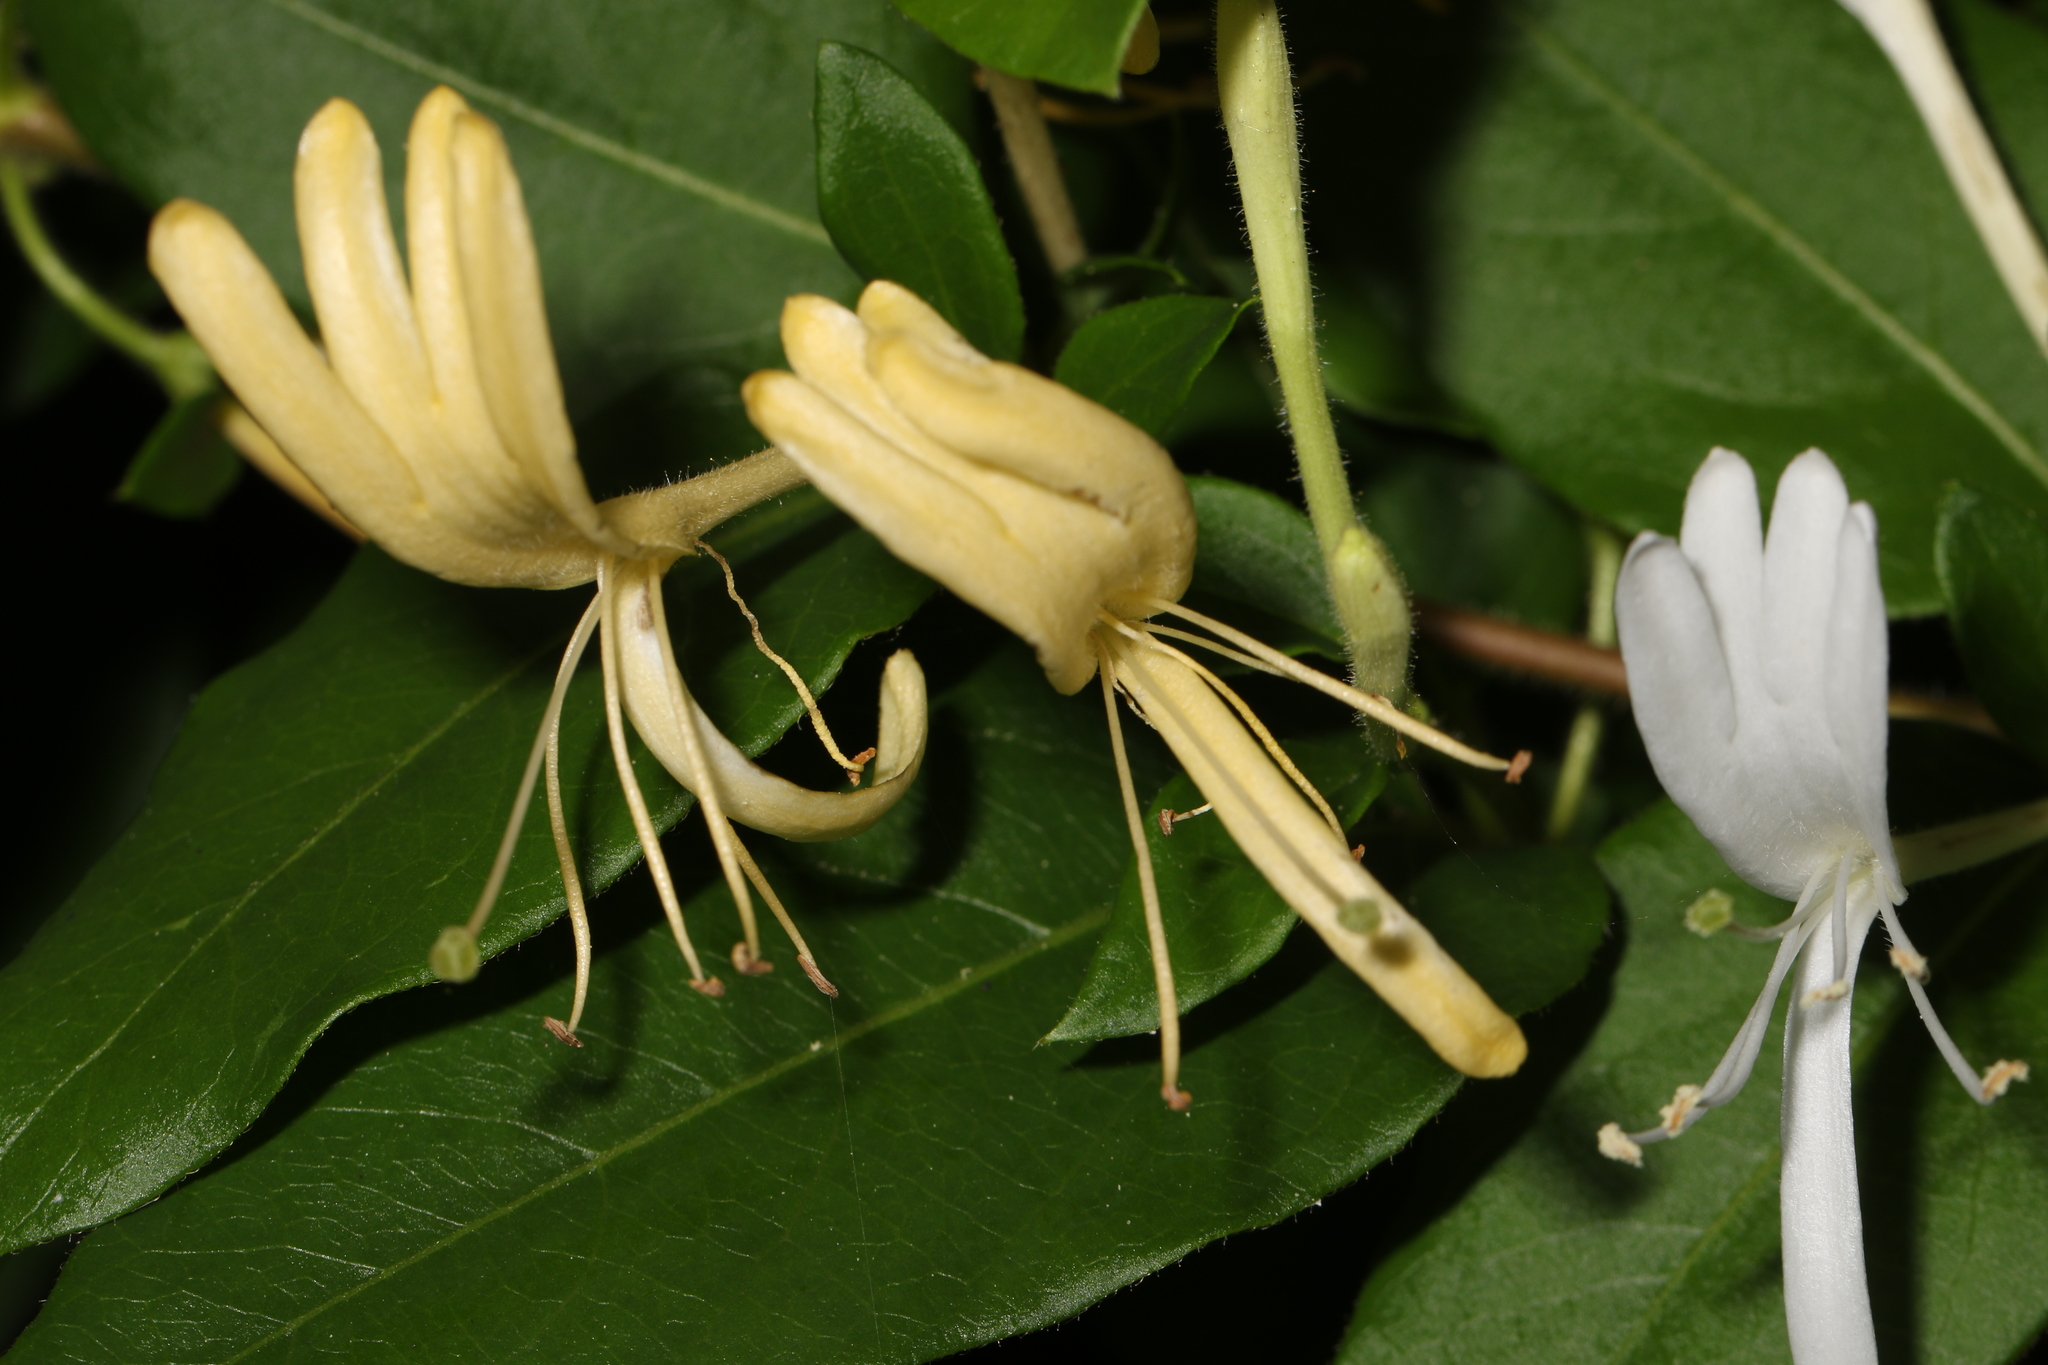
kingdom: Plantae
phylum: Tracheophyta
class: Magnoliopsida
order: Dipsacales
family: Caprifoliaceae
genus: Lonicera
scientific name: Lonicera japonica
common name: Japanese honeysuckle
